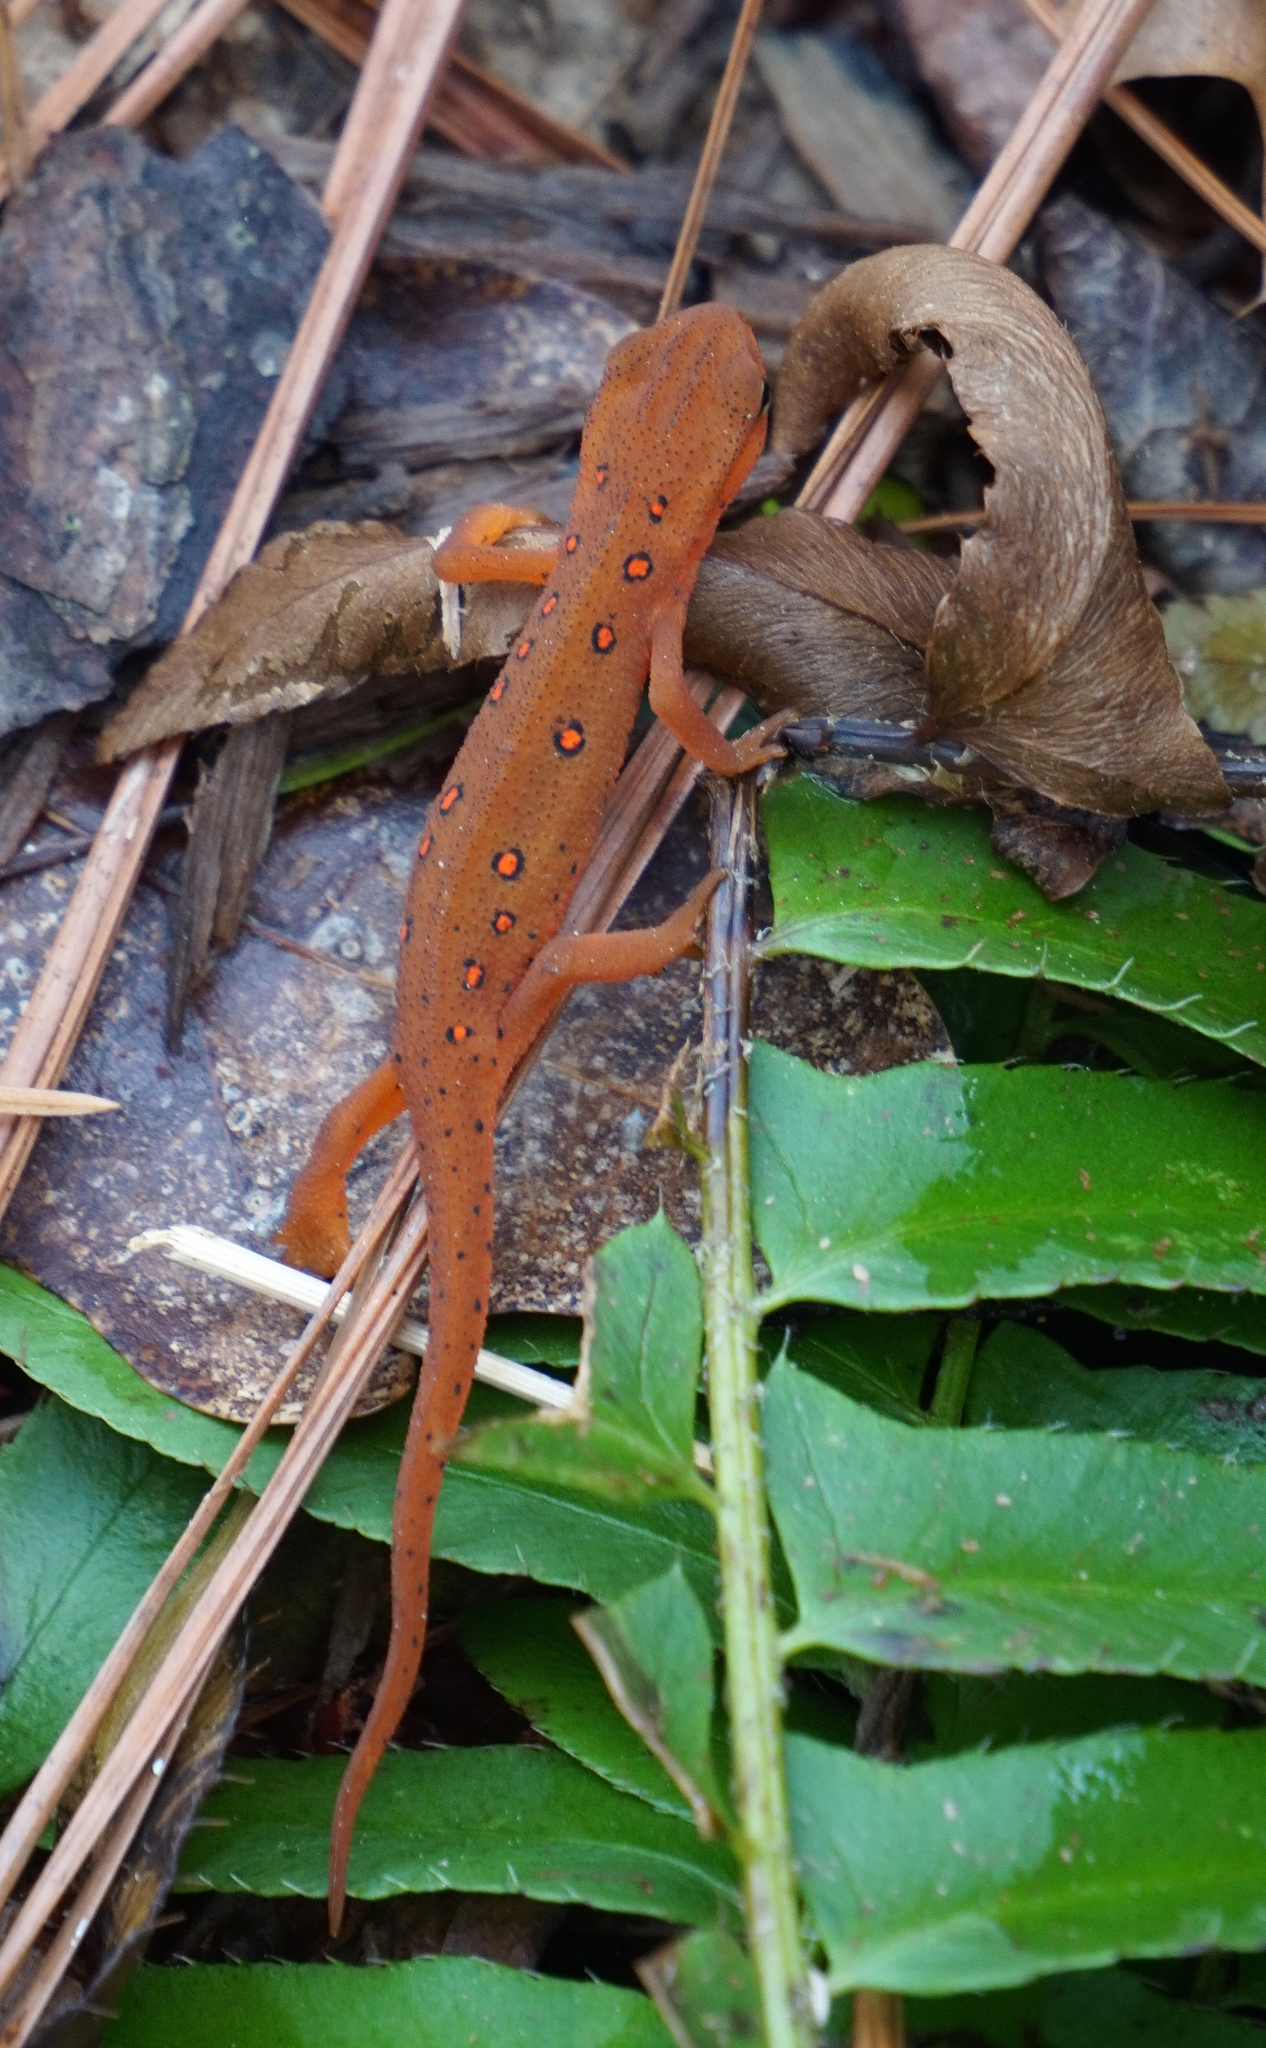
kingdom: Animalia
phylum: Chordata
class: Amphibia
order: Caudata
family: Salamandridae
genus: Notophthalmus
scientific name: Notophthalmus viridescens
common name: Eastern newt
